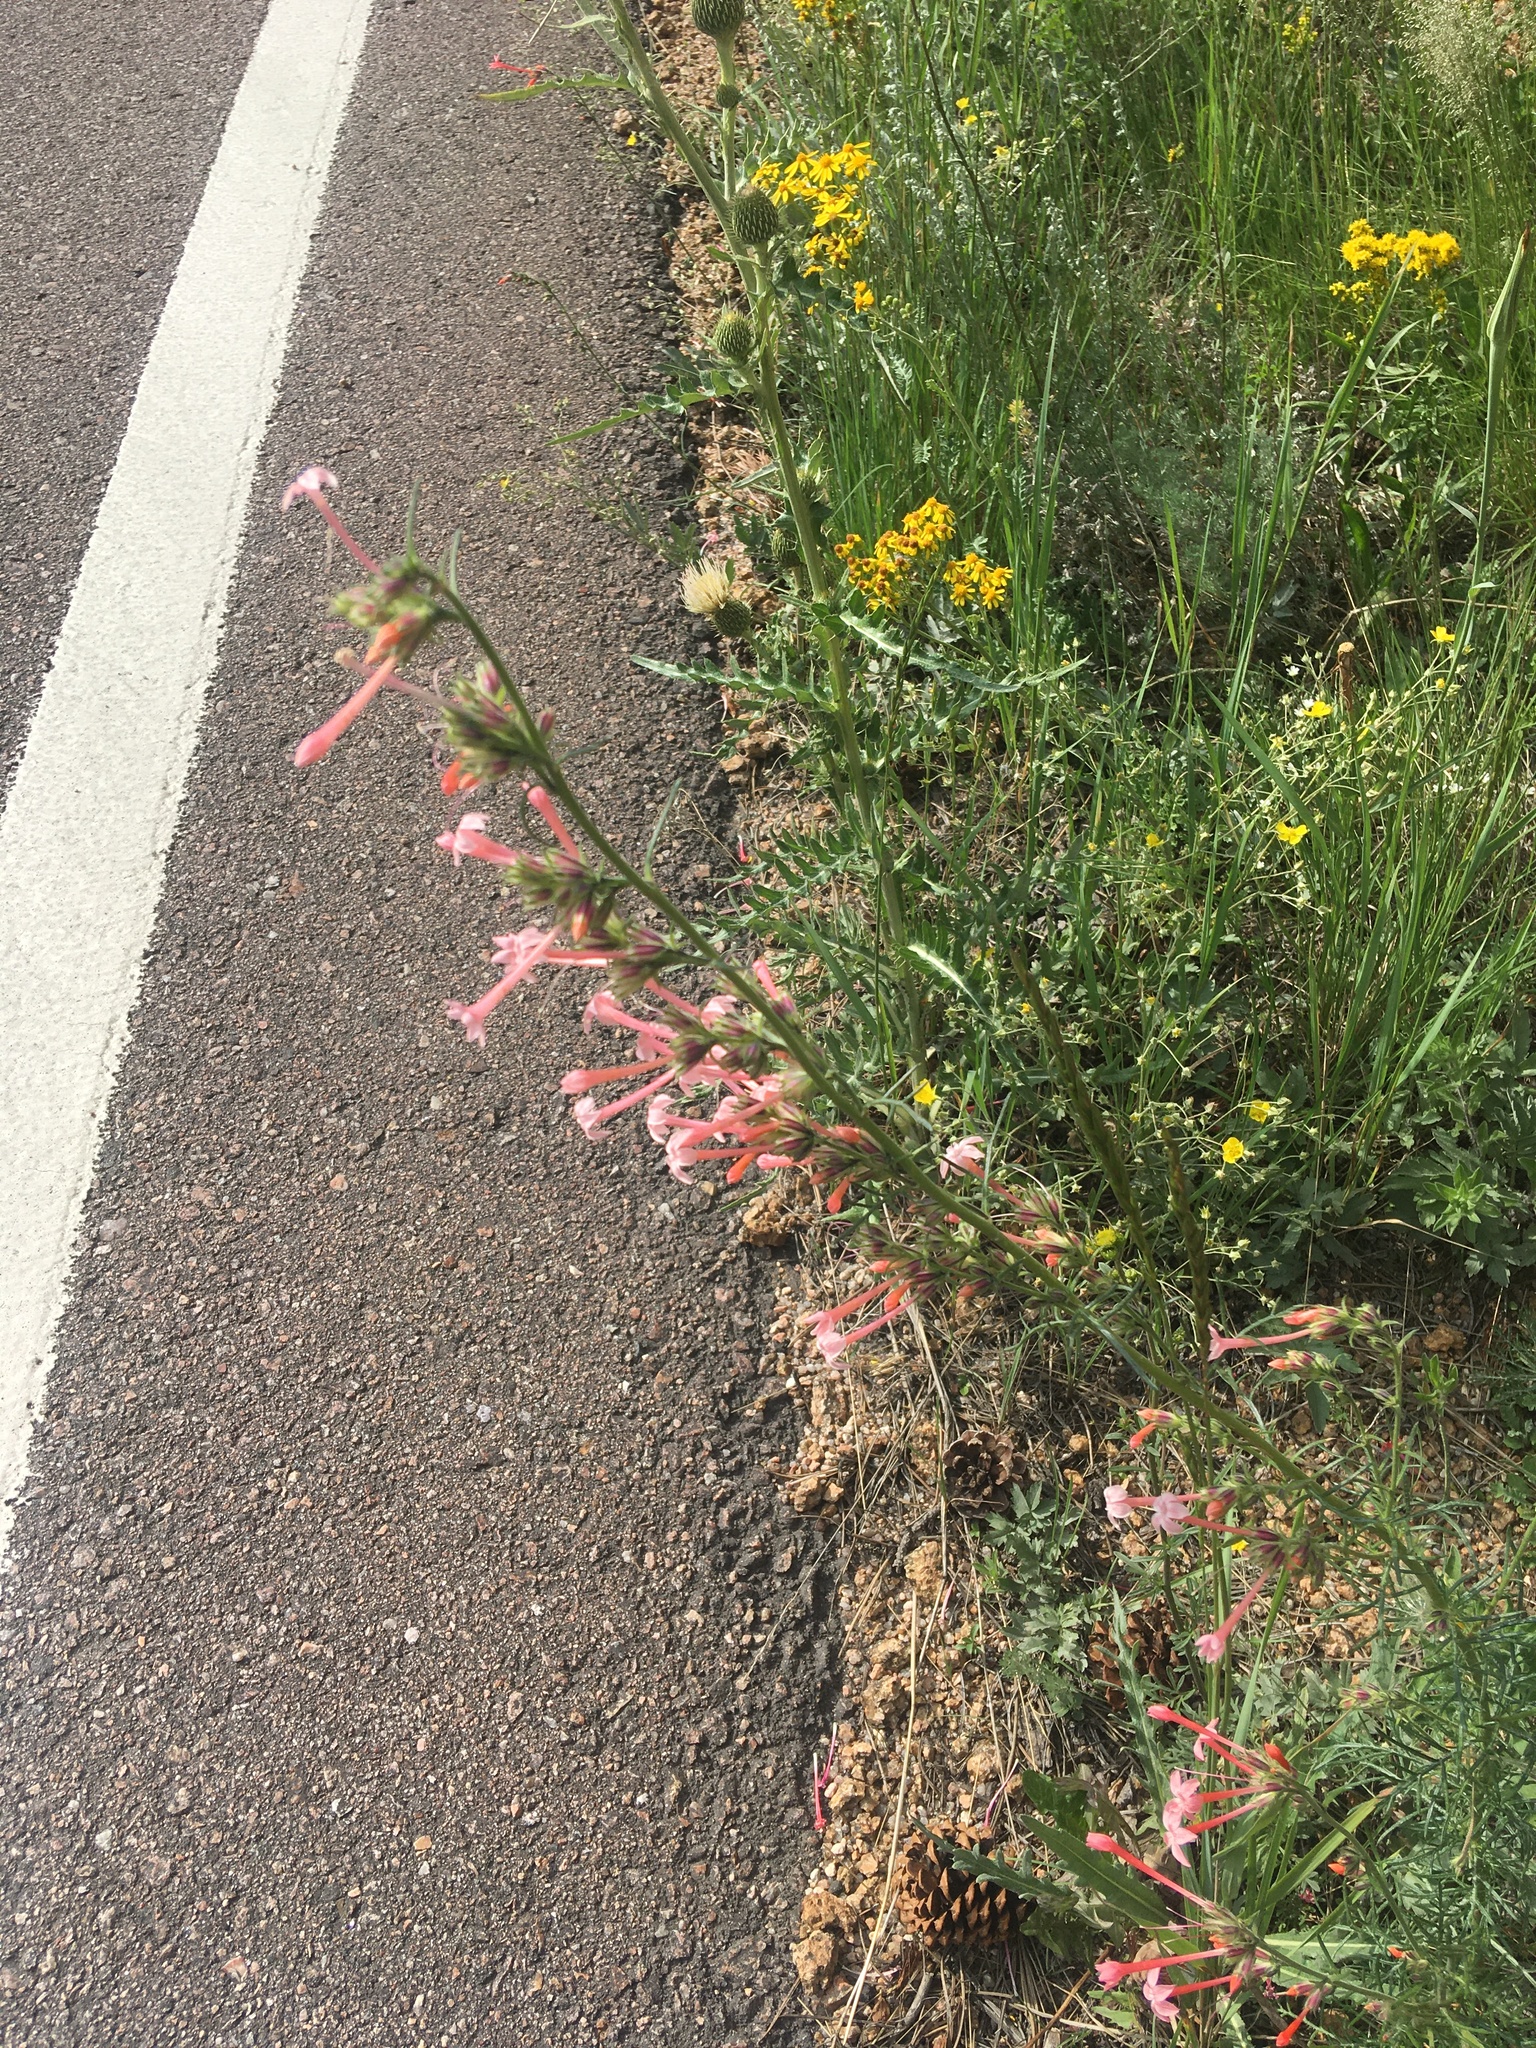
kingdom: Plantae
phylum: Tracheophyta
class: Magnoliopsida
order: Ericales
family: Polemoniaceae
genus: Ipomopsis
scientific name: Ipomopsis aggregata
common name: Scarlet gilia
